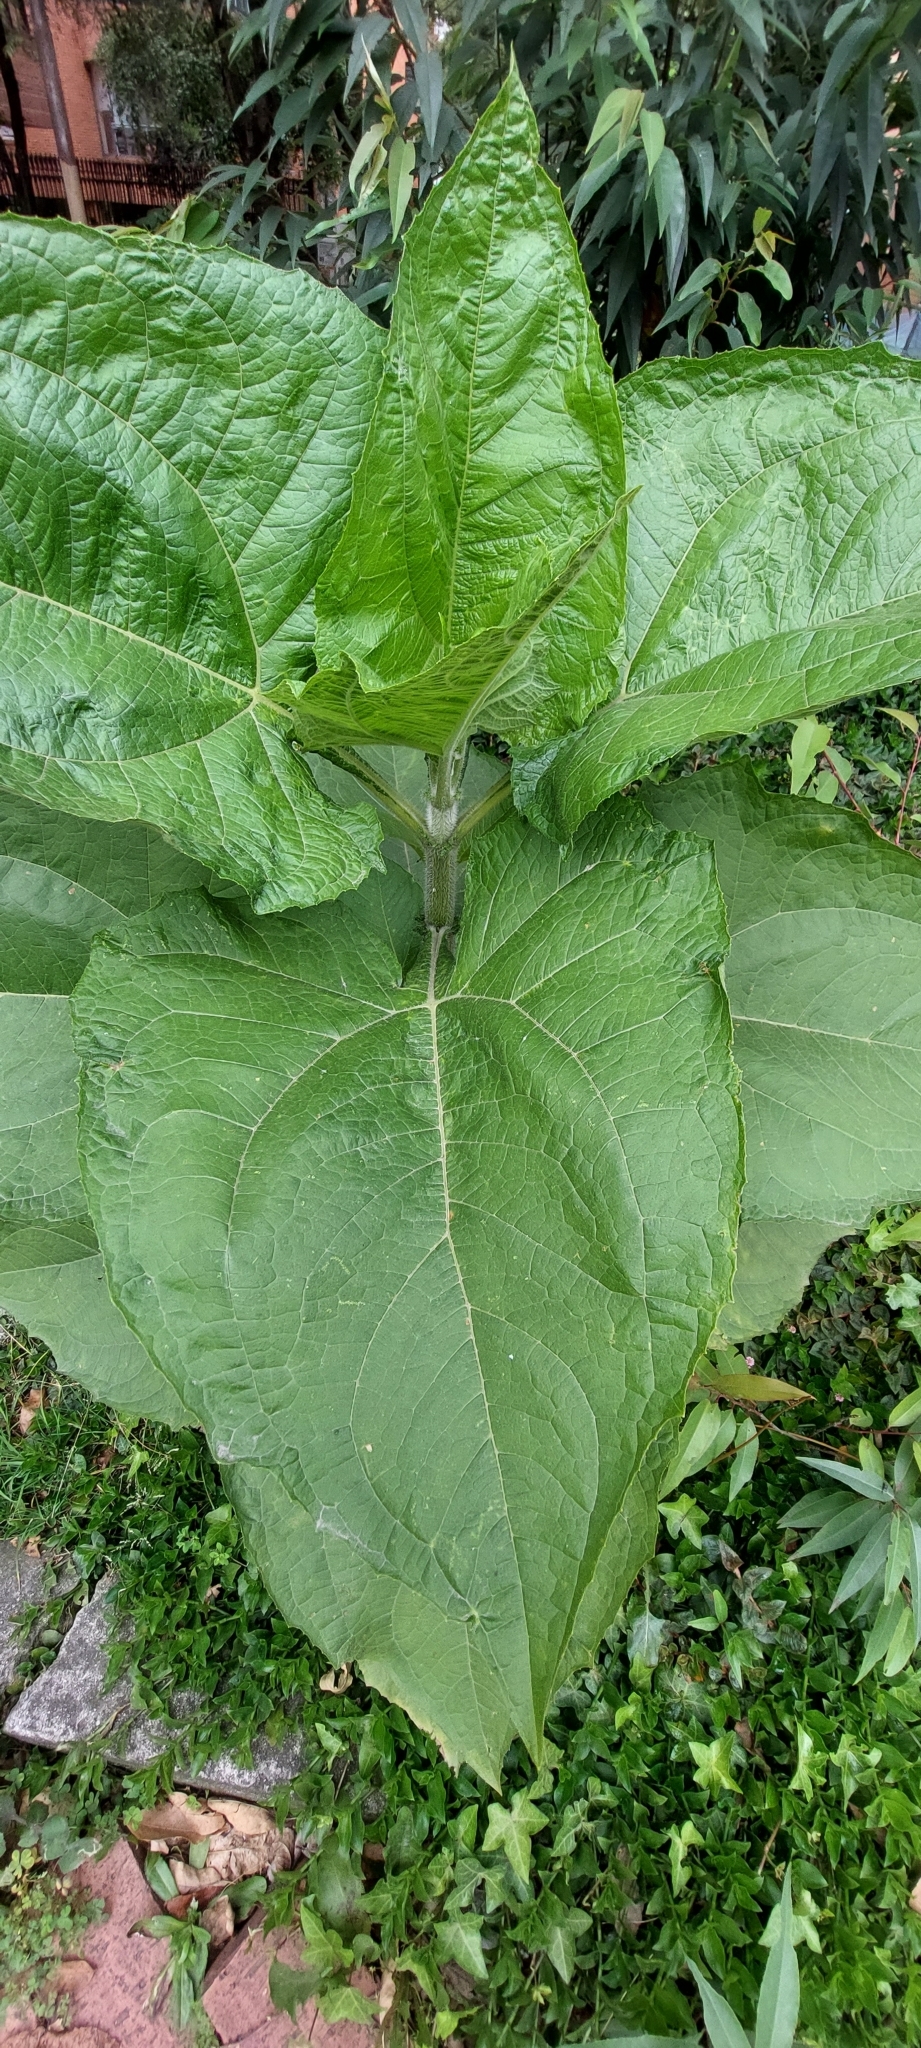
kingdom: Plantae
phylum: Tracheophyta
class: Magnoliopsida
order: Asterales
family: Asteraceae
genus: Smallanthus
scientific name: Smallanthus pyramidalis
